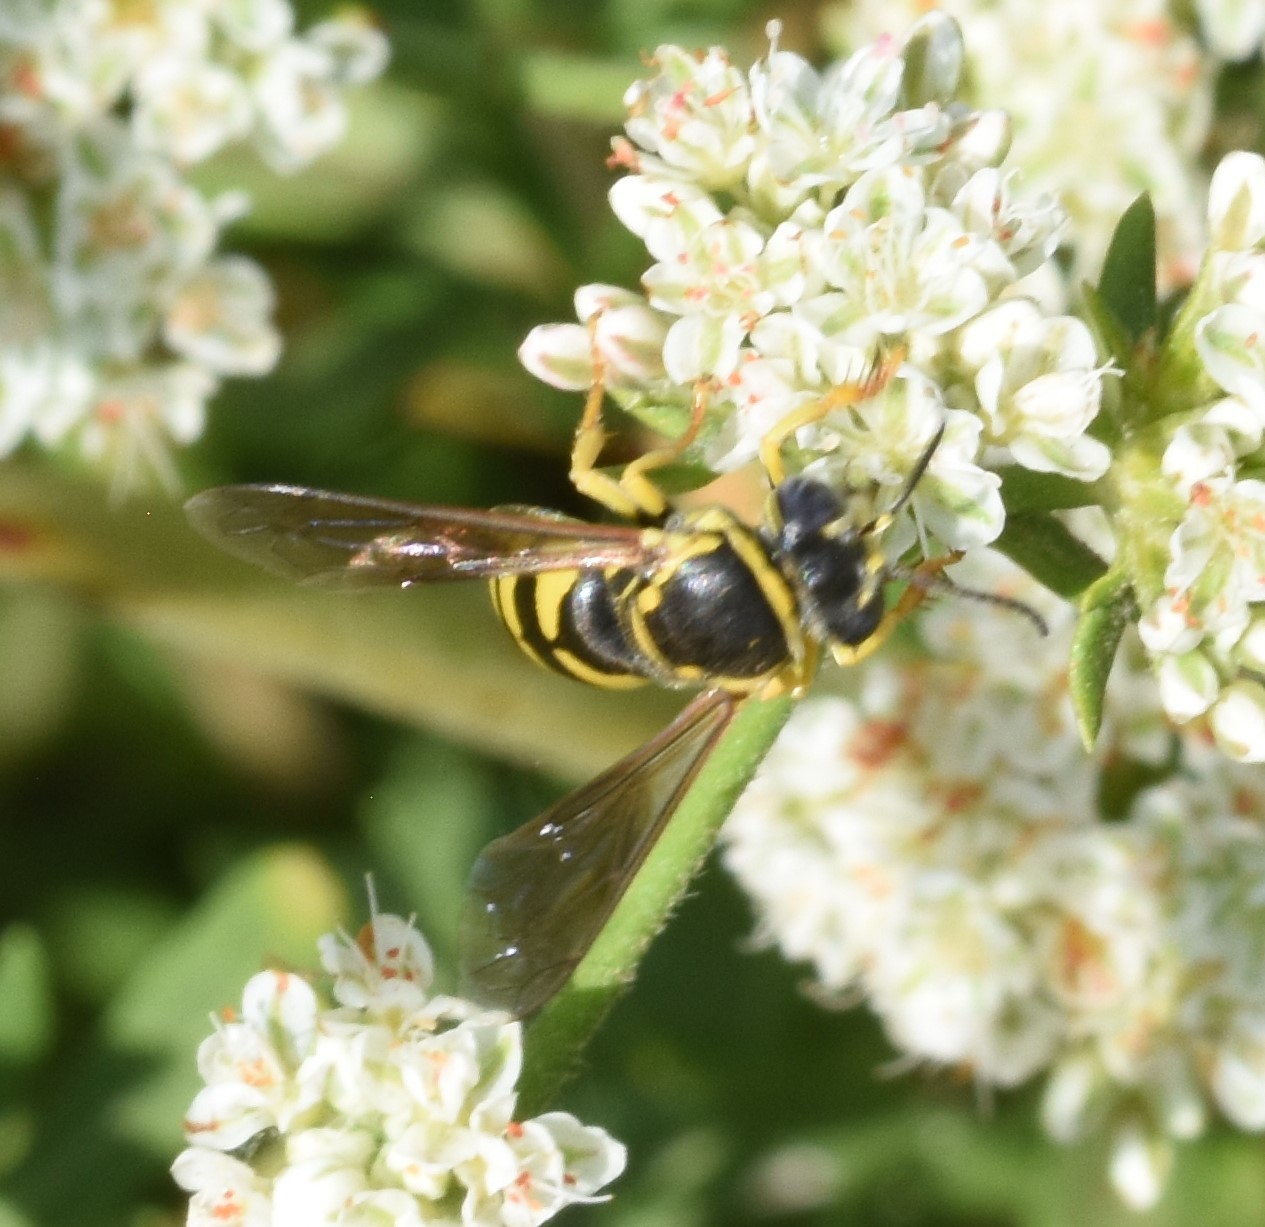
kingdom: Animalia
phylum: Arthropoda
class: Insecta
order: Hymenoptera
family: Crabronidae
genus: Bicyrtes
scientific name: Bicyrtes fodiens
